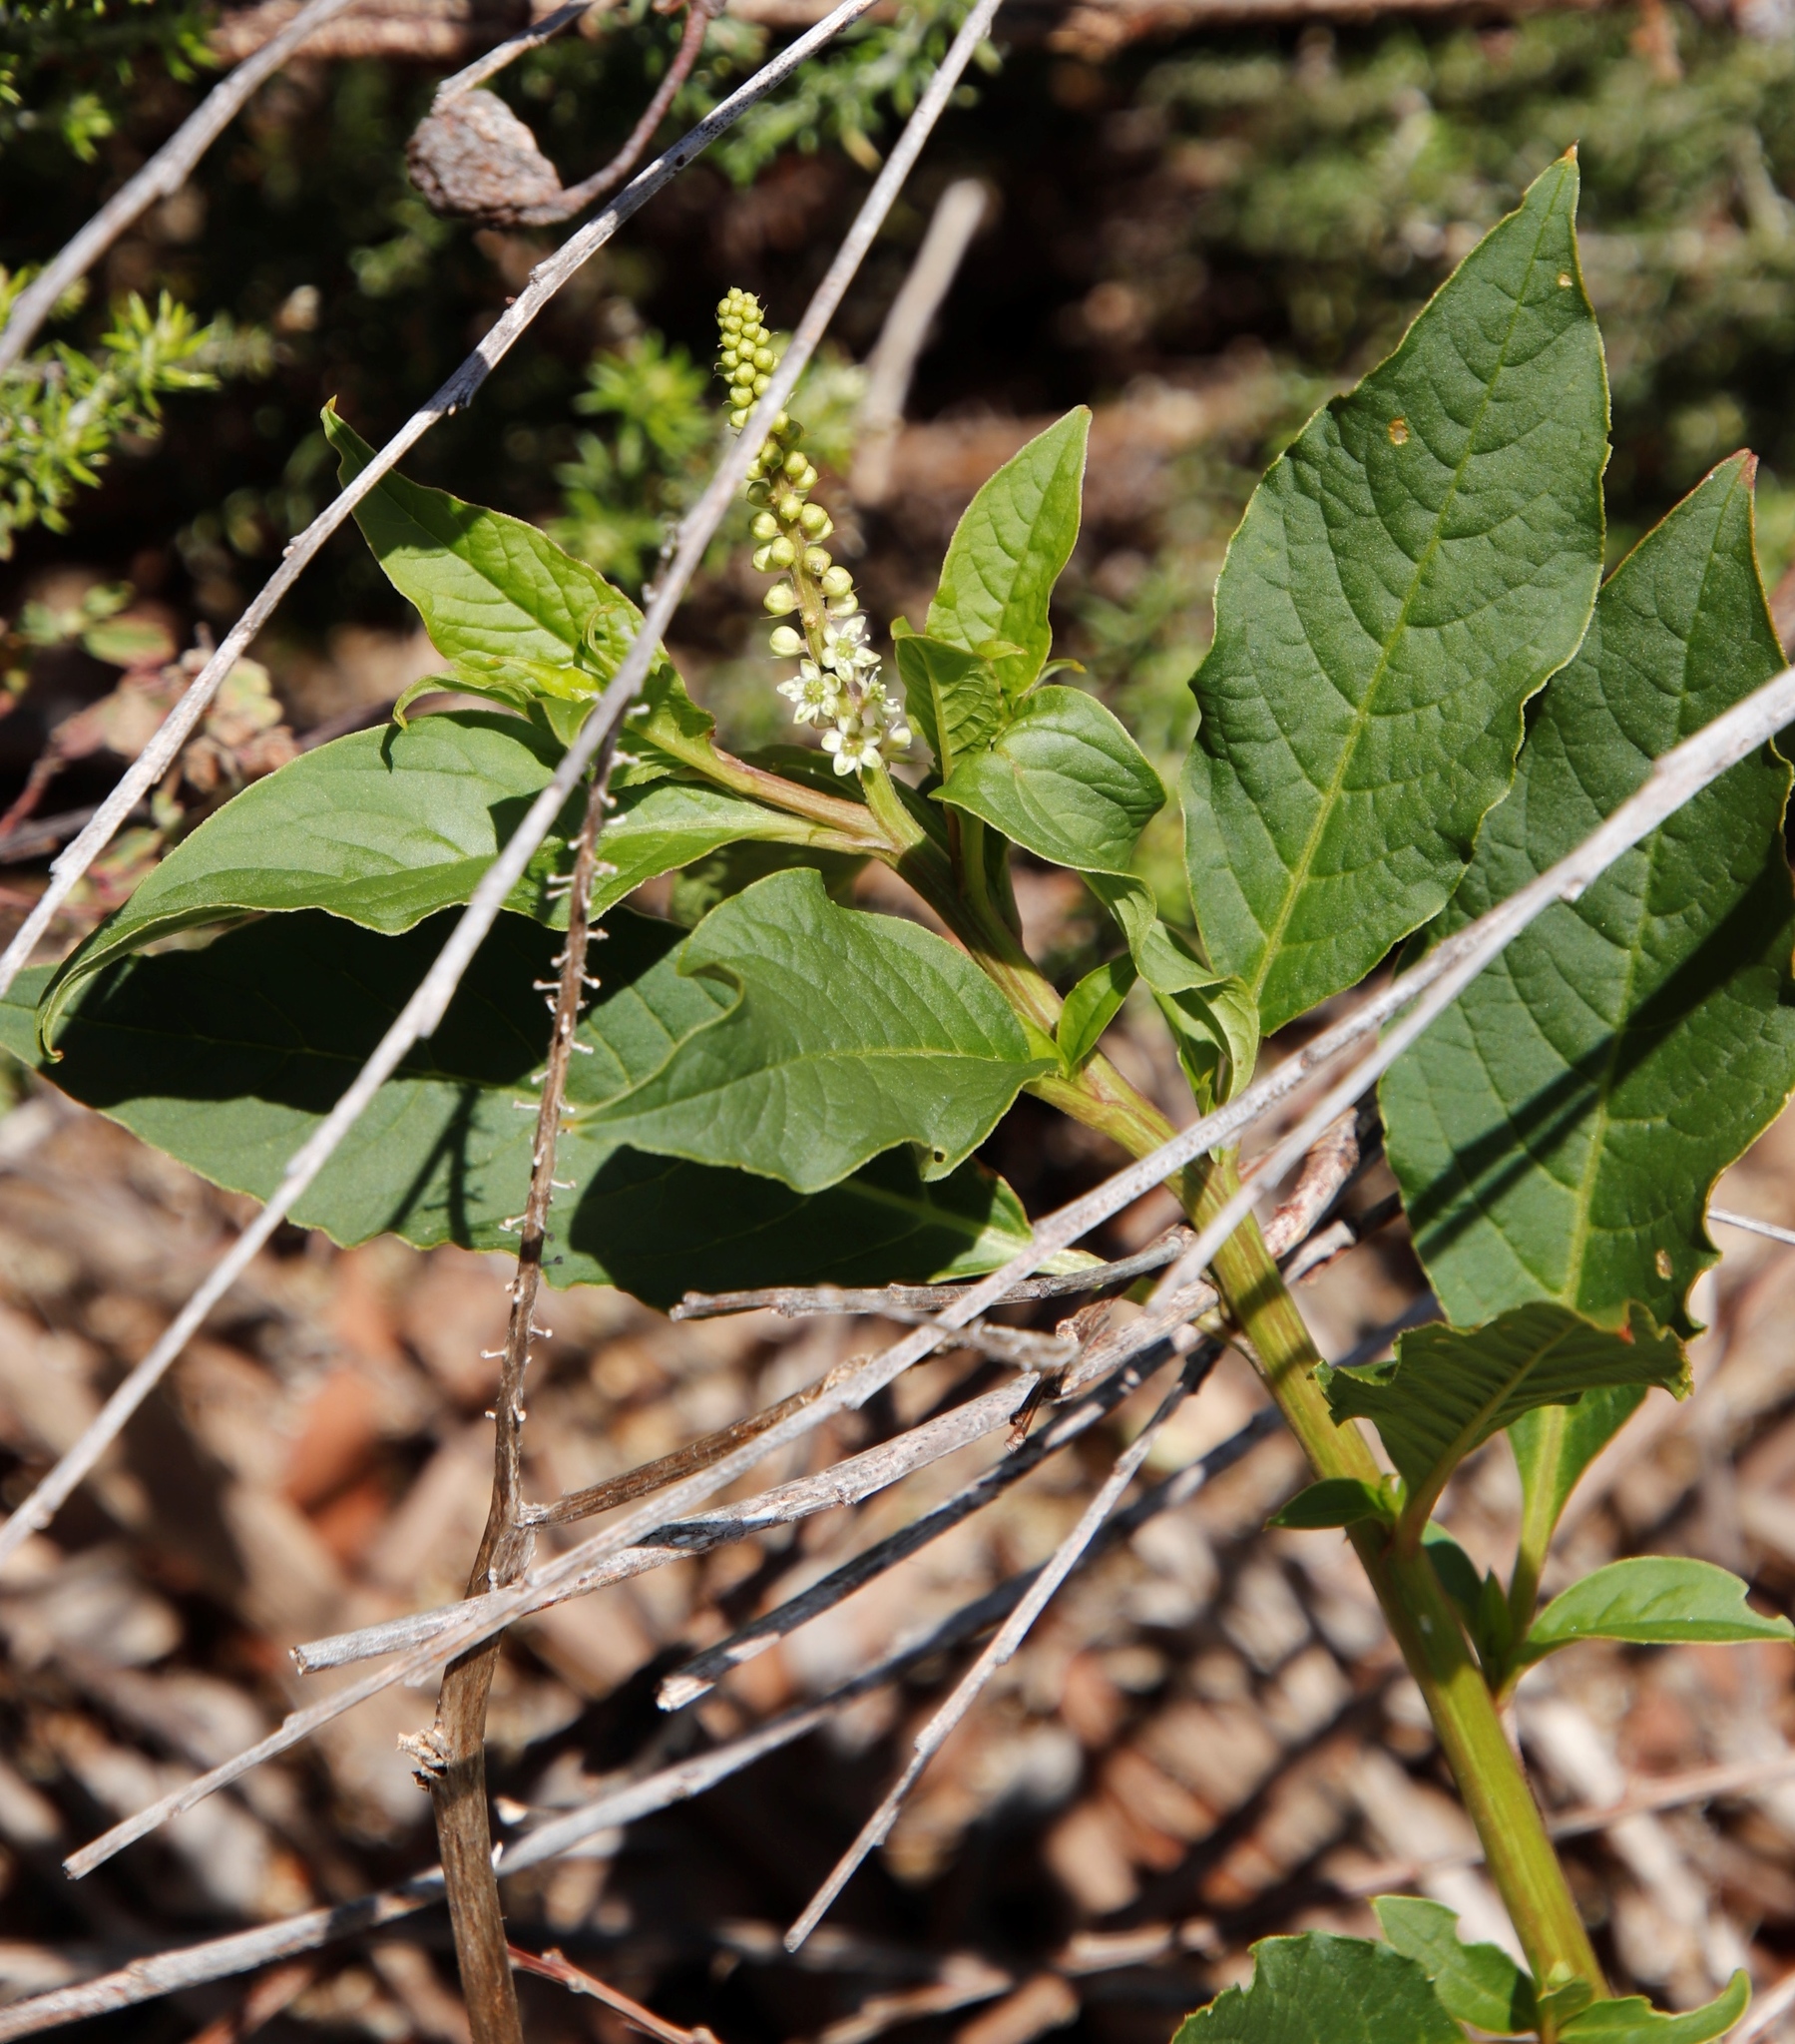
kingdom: Plantae
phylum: Tracheophyta
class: Magnoliopsida
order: Caryophyllales
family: Phytolaccaceae
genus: Phytolacca
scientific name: Phytolacca icosandra
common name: Button pokeweed
